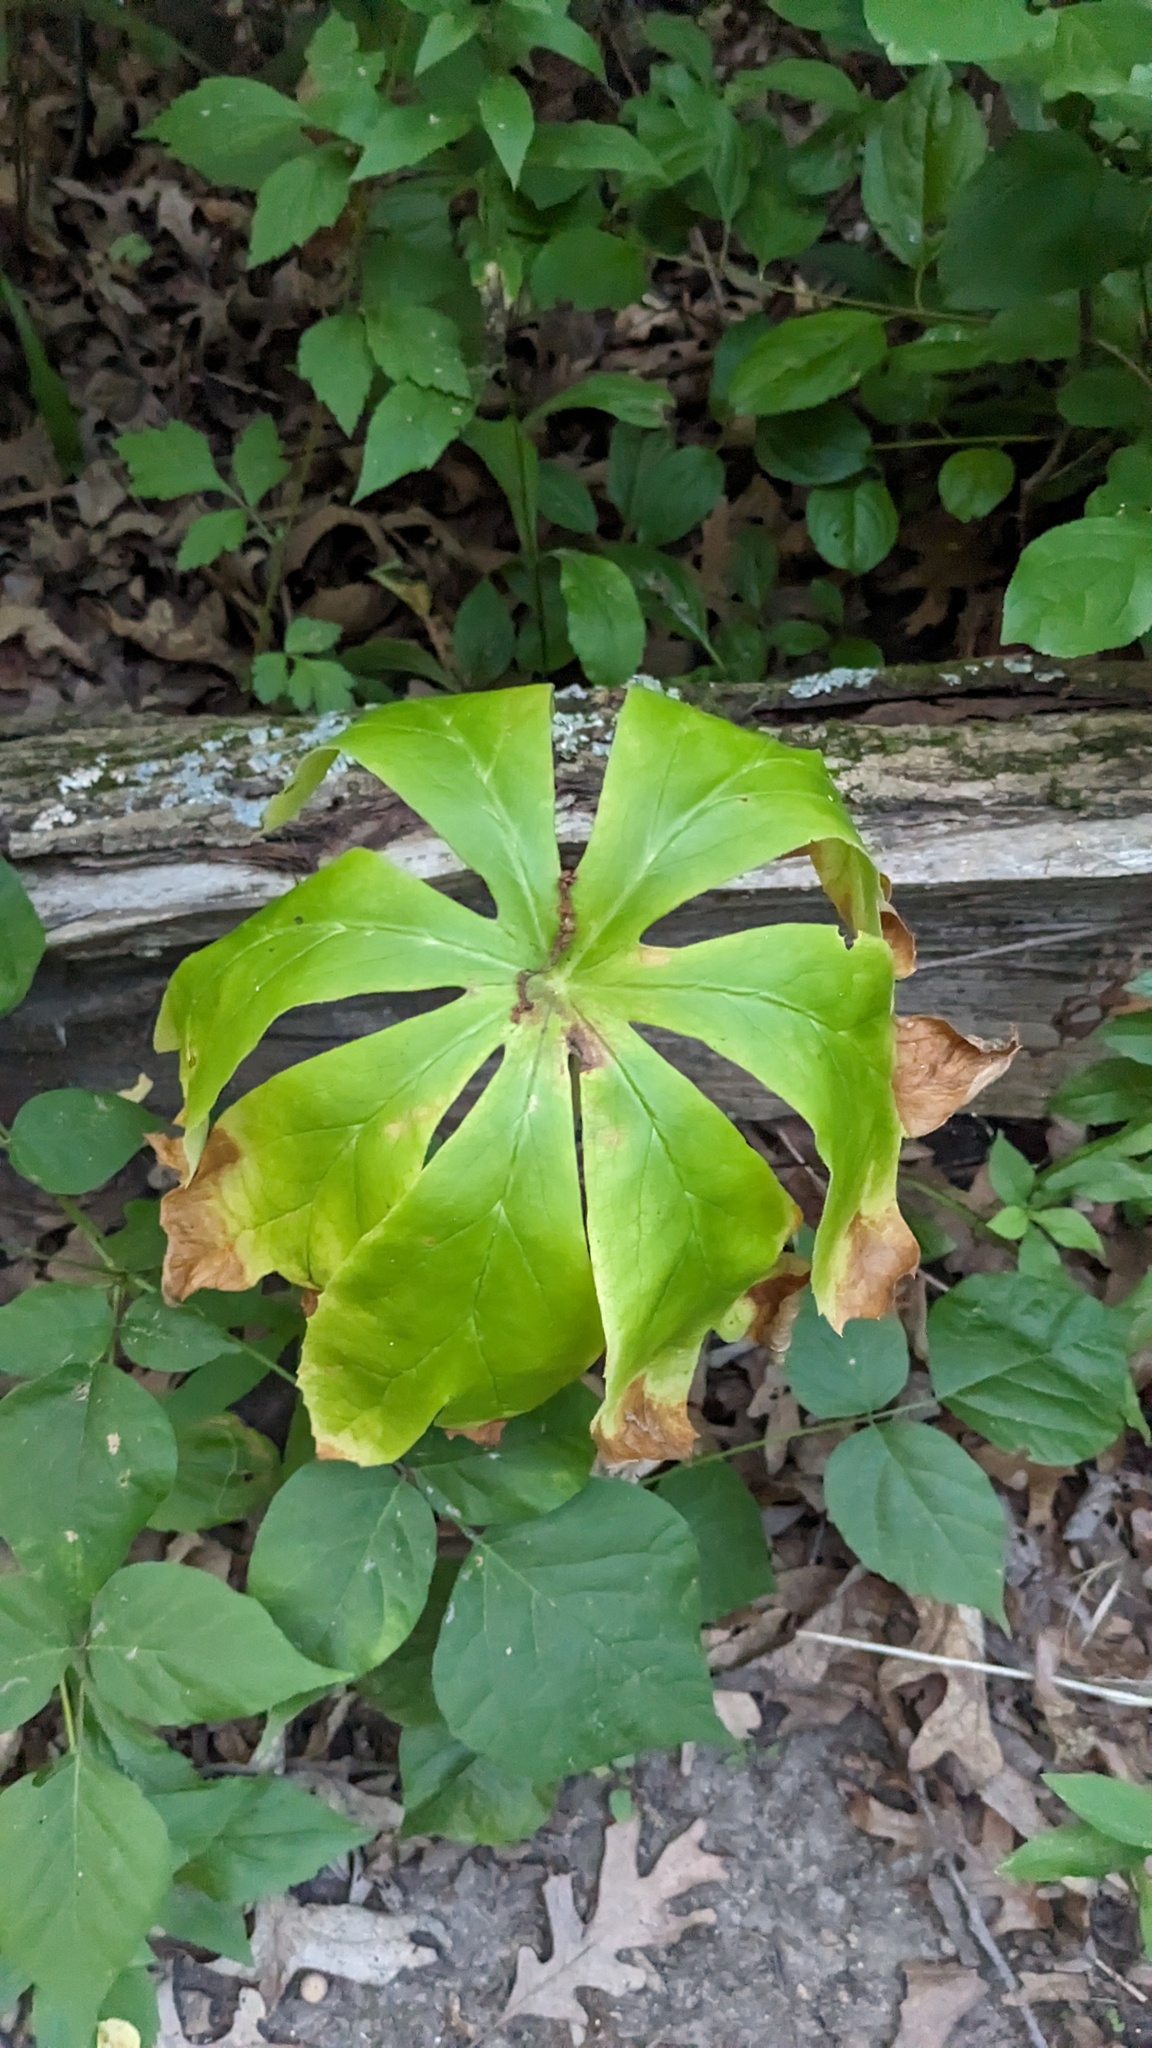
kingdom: Plantae
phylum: Tracheophyta
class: Magnoliopsida
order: Ranunculales
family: Berberidaceae
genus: Podophyllum
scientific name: Podophyllum peltatum
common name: Wild mandrake
